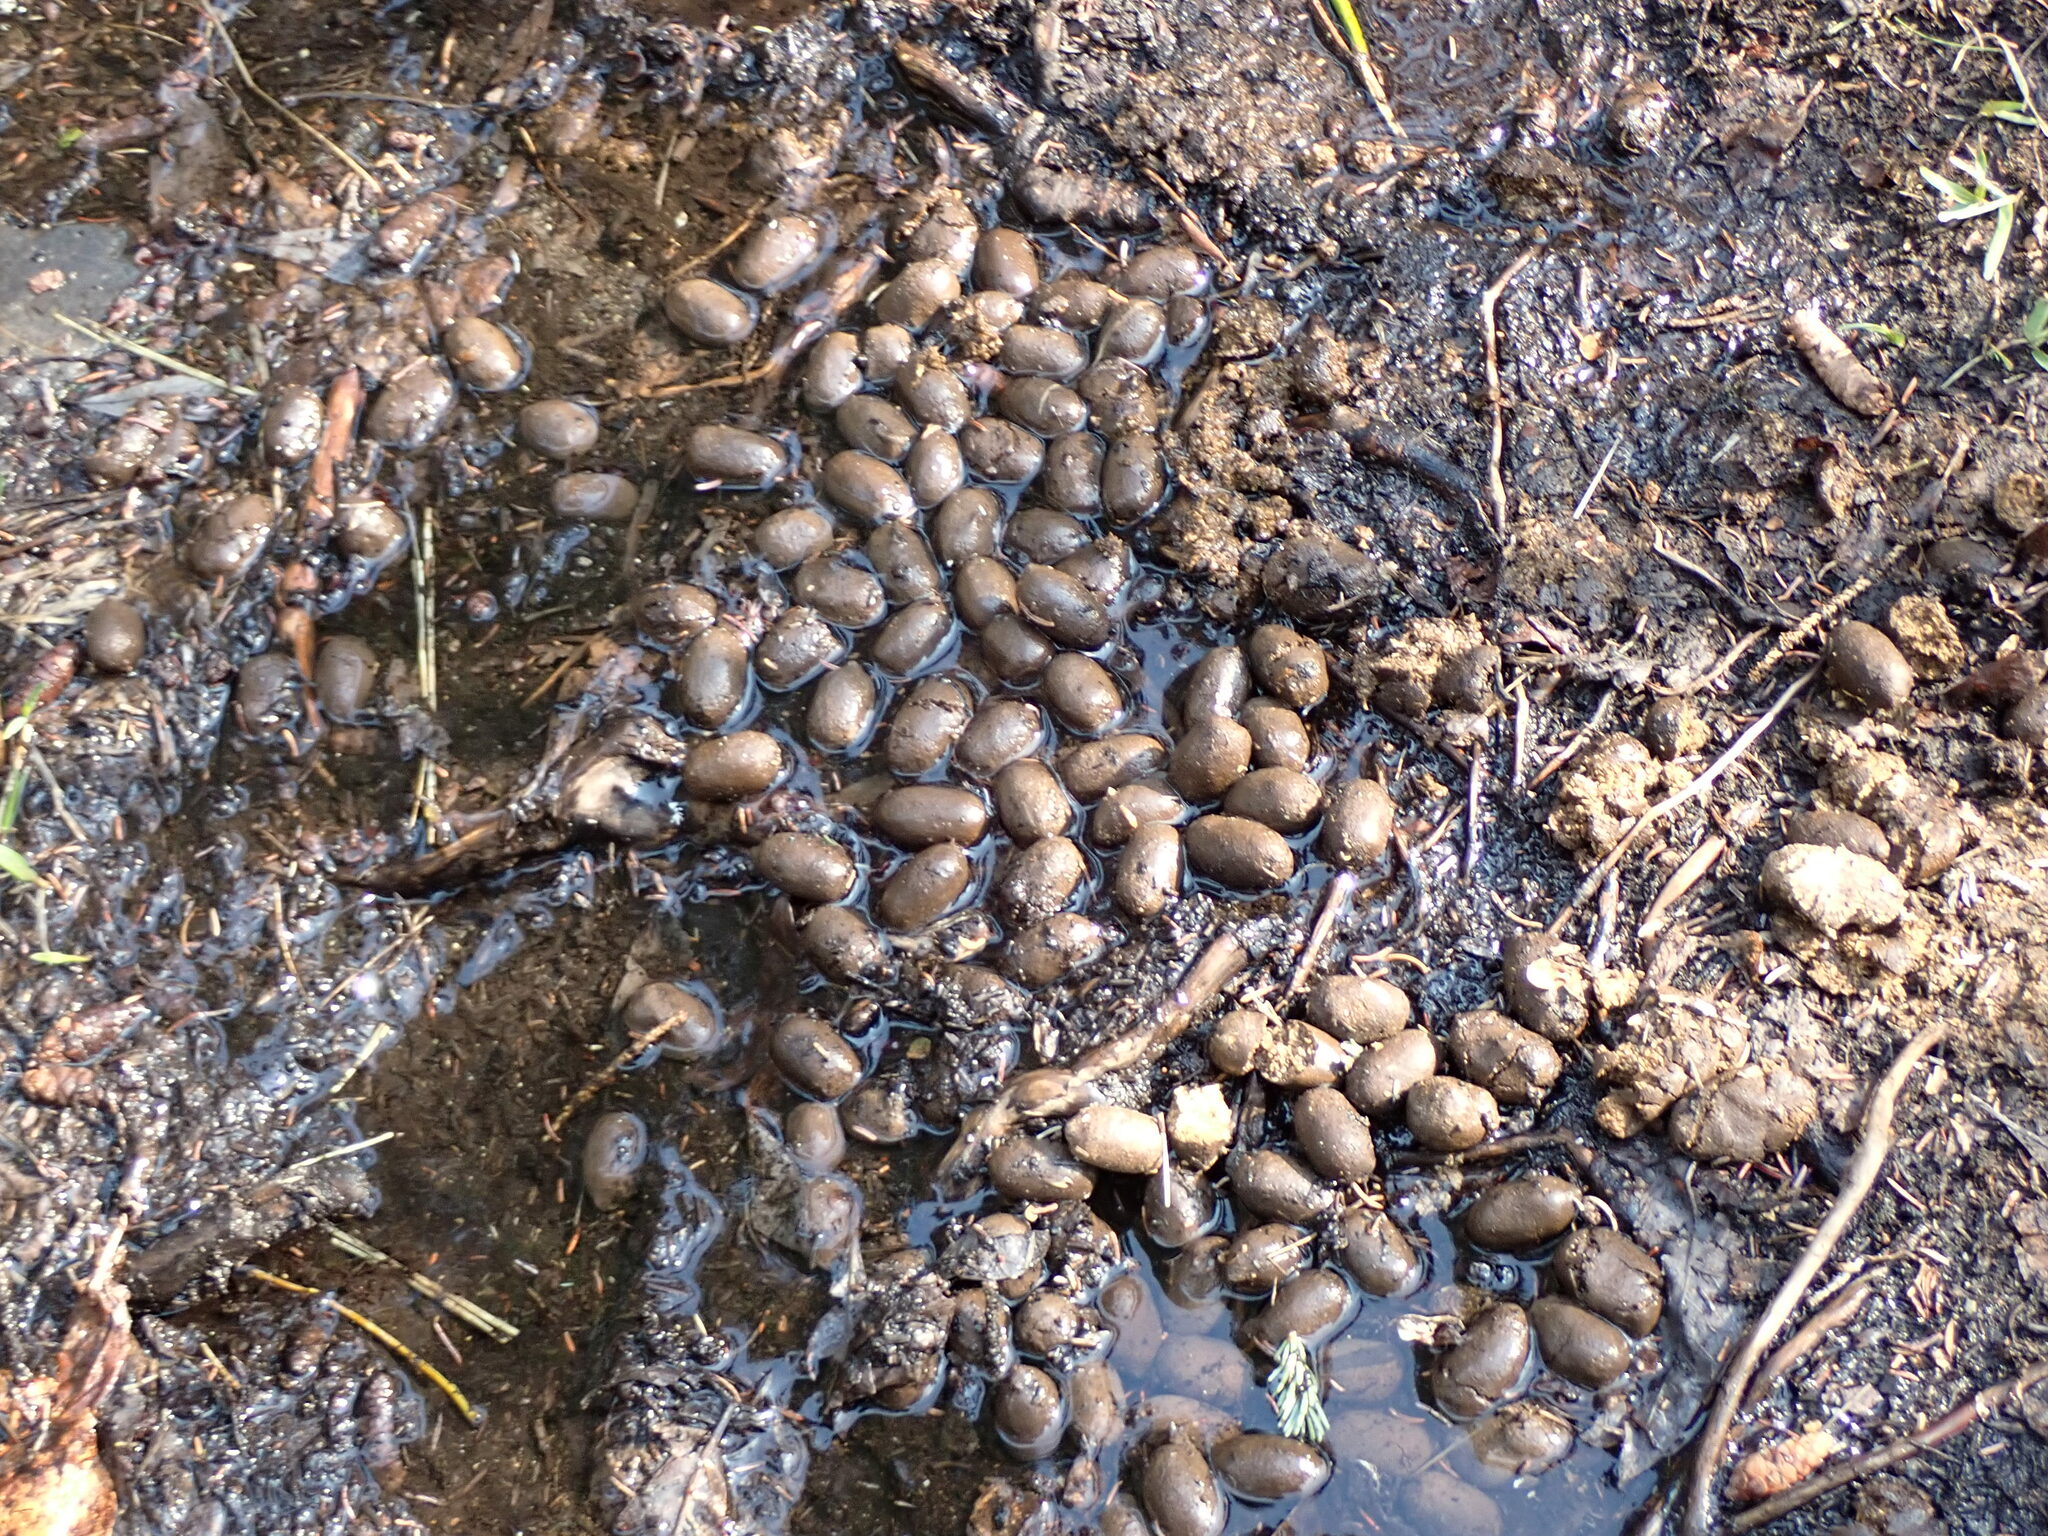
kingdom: Animalia
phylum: Chordata
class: Mammalia
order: Artiodactyla
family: Cervidae
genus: Alces
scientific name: Alces alces
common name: Moose
